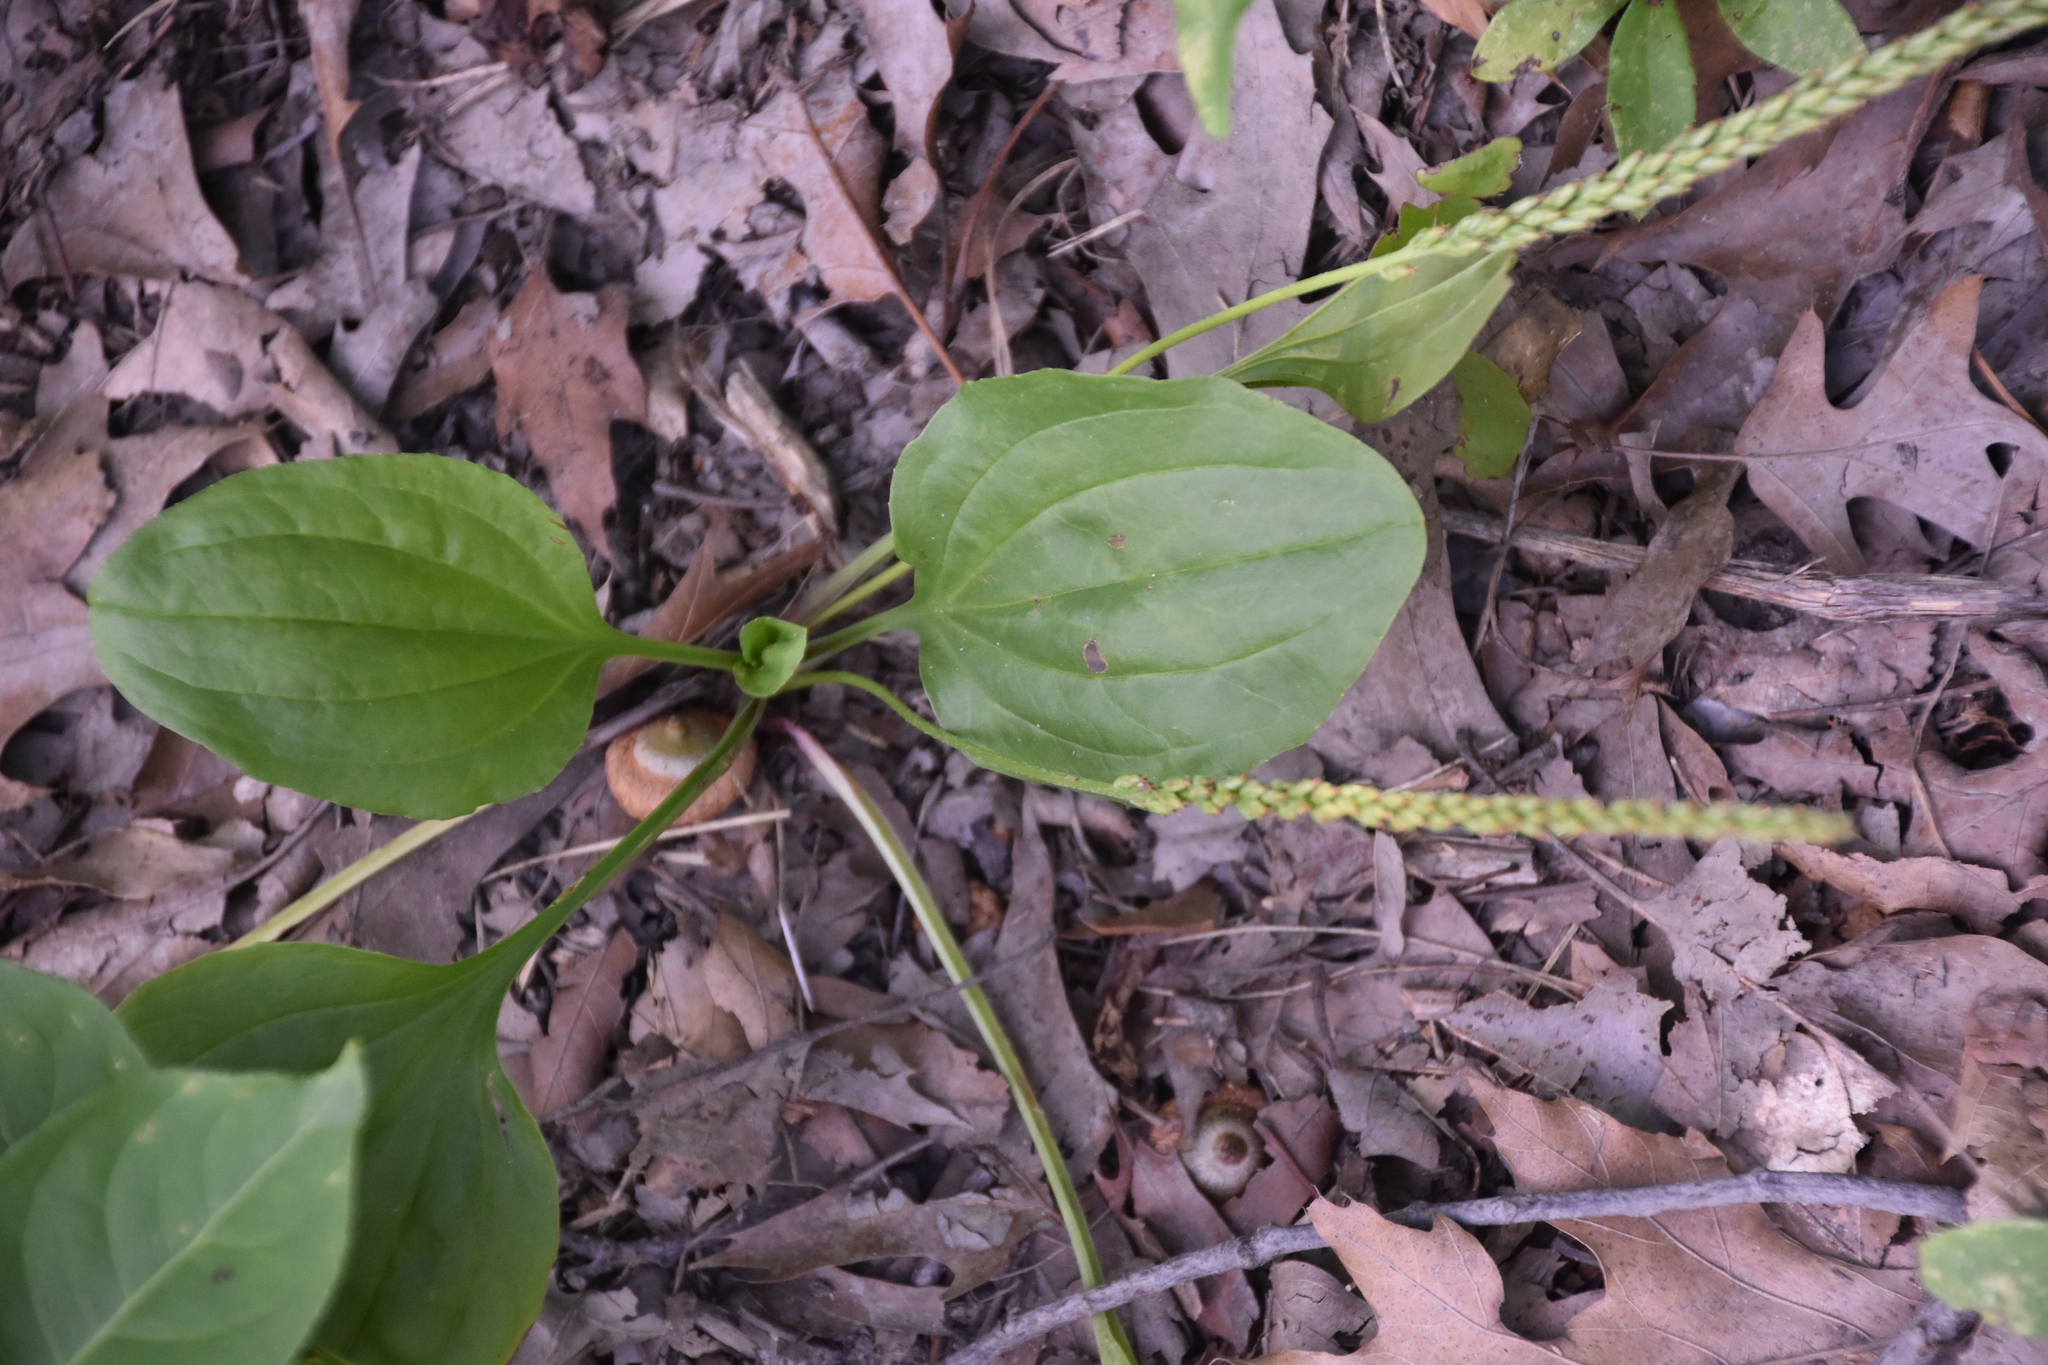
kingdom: Plantae
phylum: Tracheophyta
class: Magnoliopsida
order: Lamiales
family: Plantaginaceae
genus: Plantago
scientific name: Plantago rugelii
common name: American plantain
